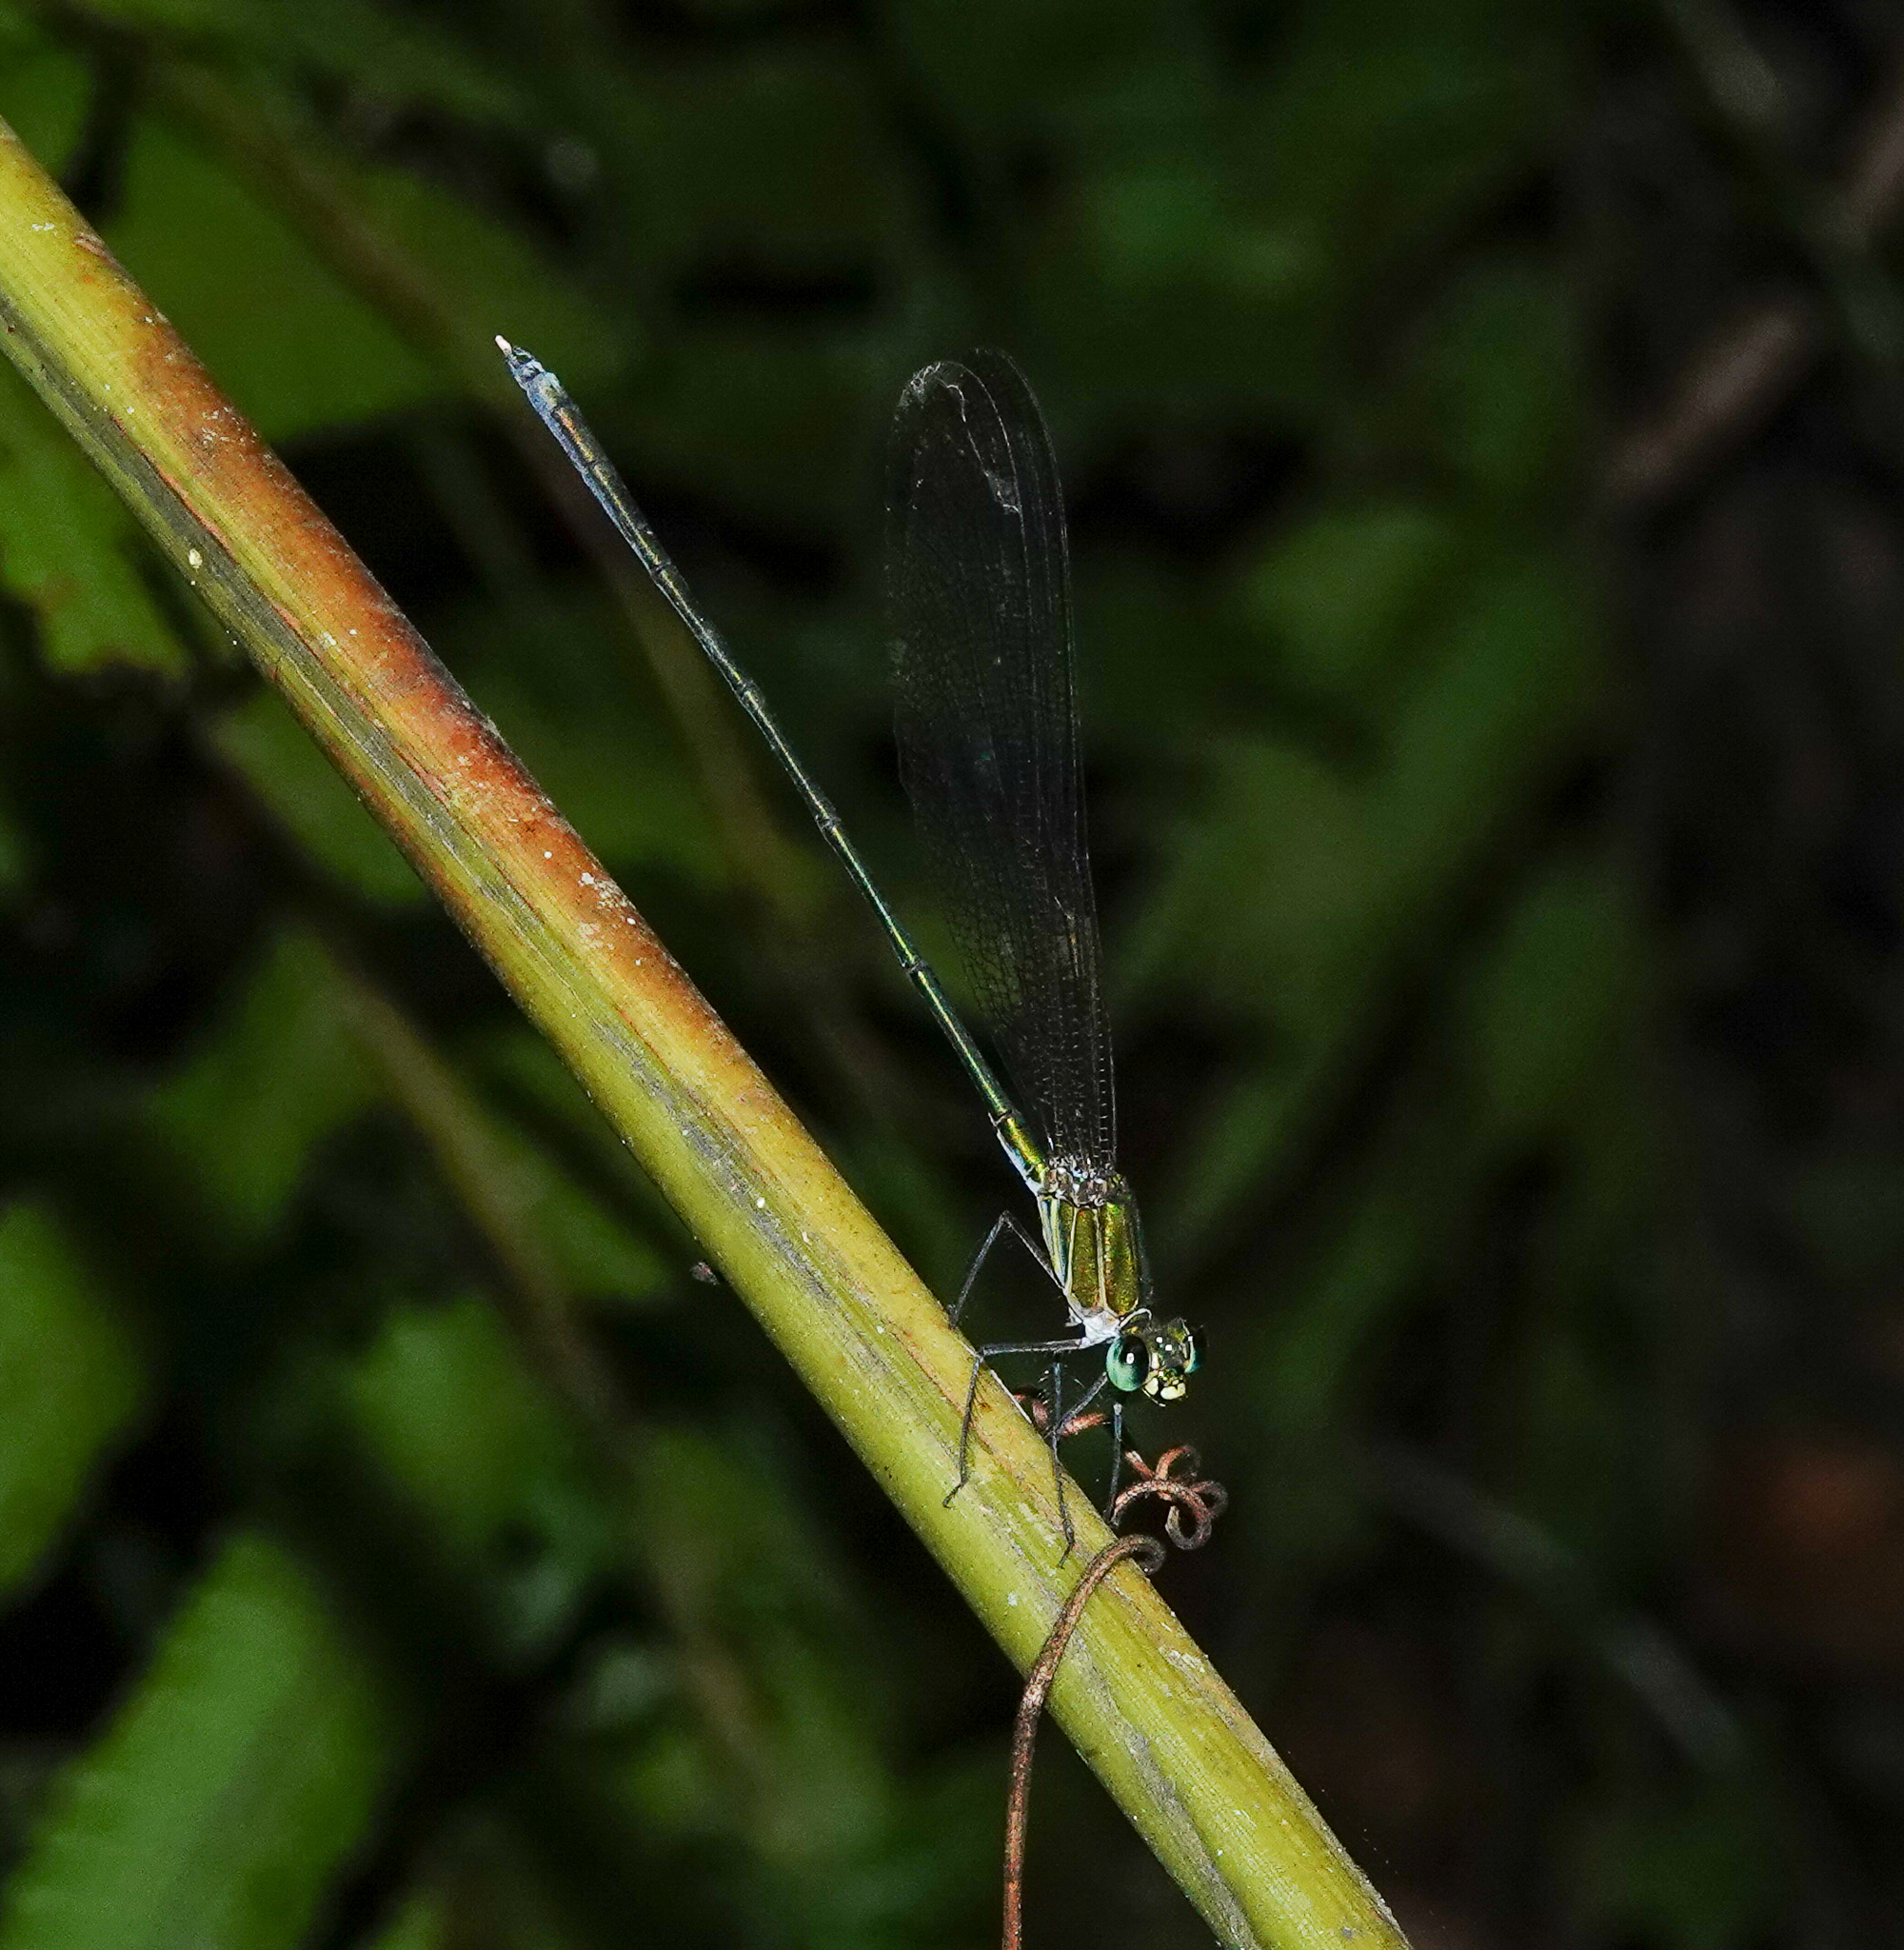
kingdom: Animalia
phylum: Arthropoda
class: Insecta
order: Odonata
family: Calopterygidae
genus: Vestalis
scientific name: Vestalis gracilis
